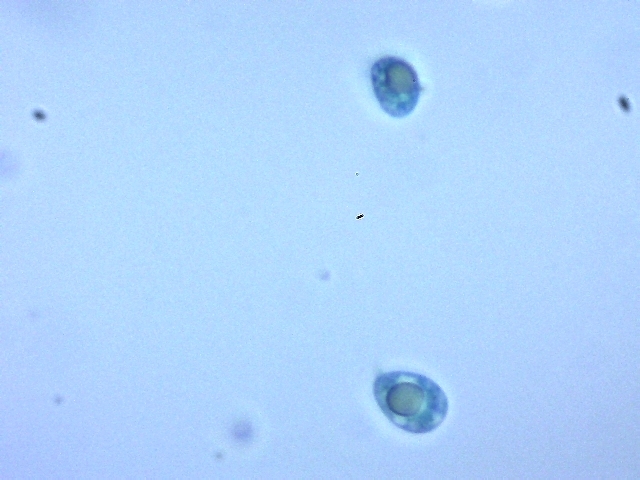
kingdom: Fungi
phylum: Basidiomycota
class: Agaricomycetes
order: Agaricales
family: Hygrophoraceae
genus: Lichenomphalia
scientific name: Lichenomphalia
